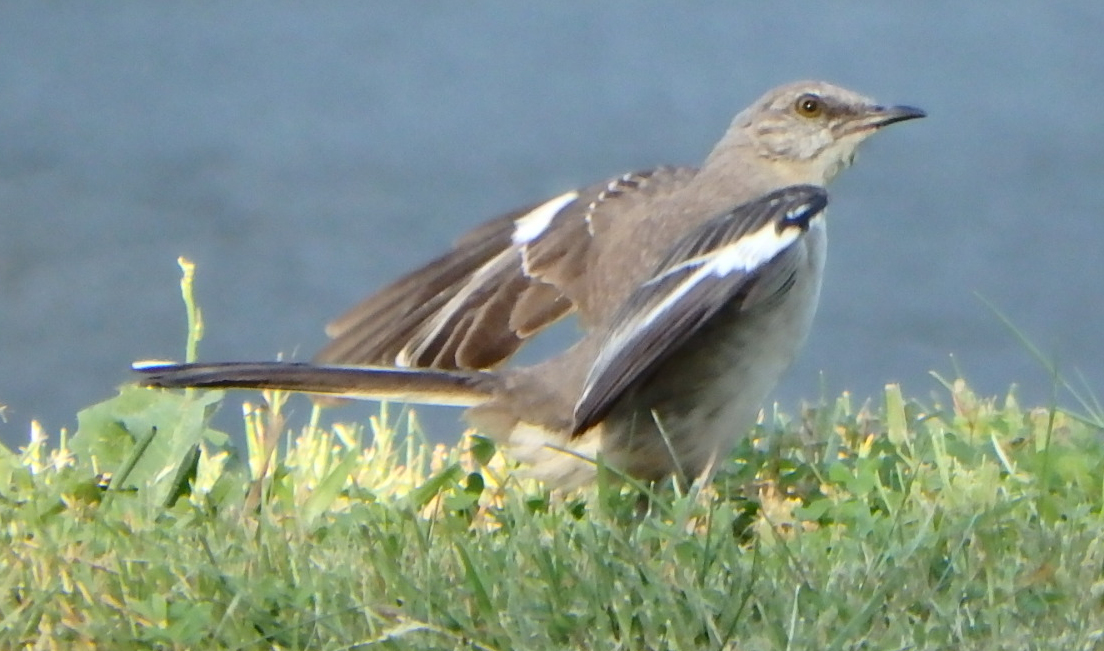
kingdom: Animalia
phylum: Chordata
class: Aves
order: Passeriformes
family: Mimidae
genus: Mimus
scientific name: Mimus polyglottos
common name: Northern mockingbird
